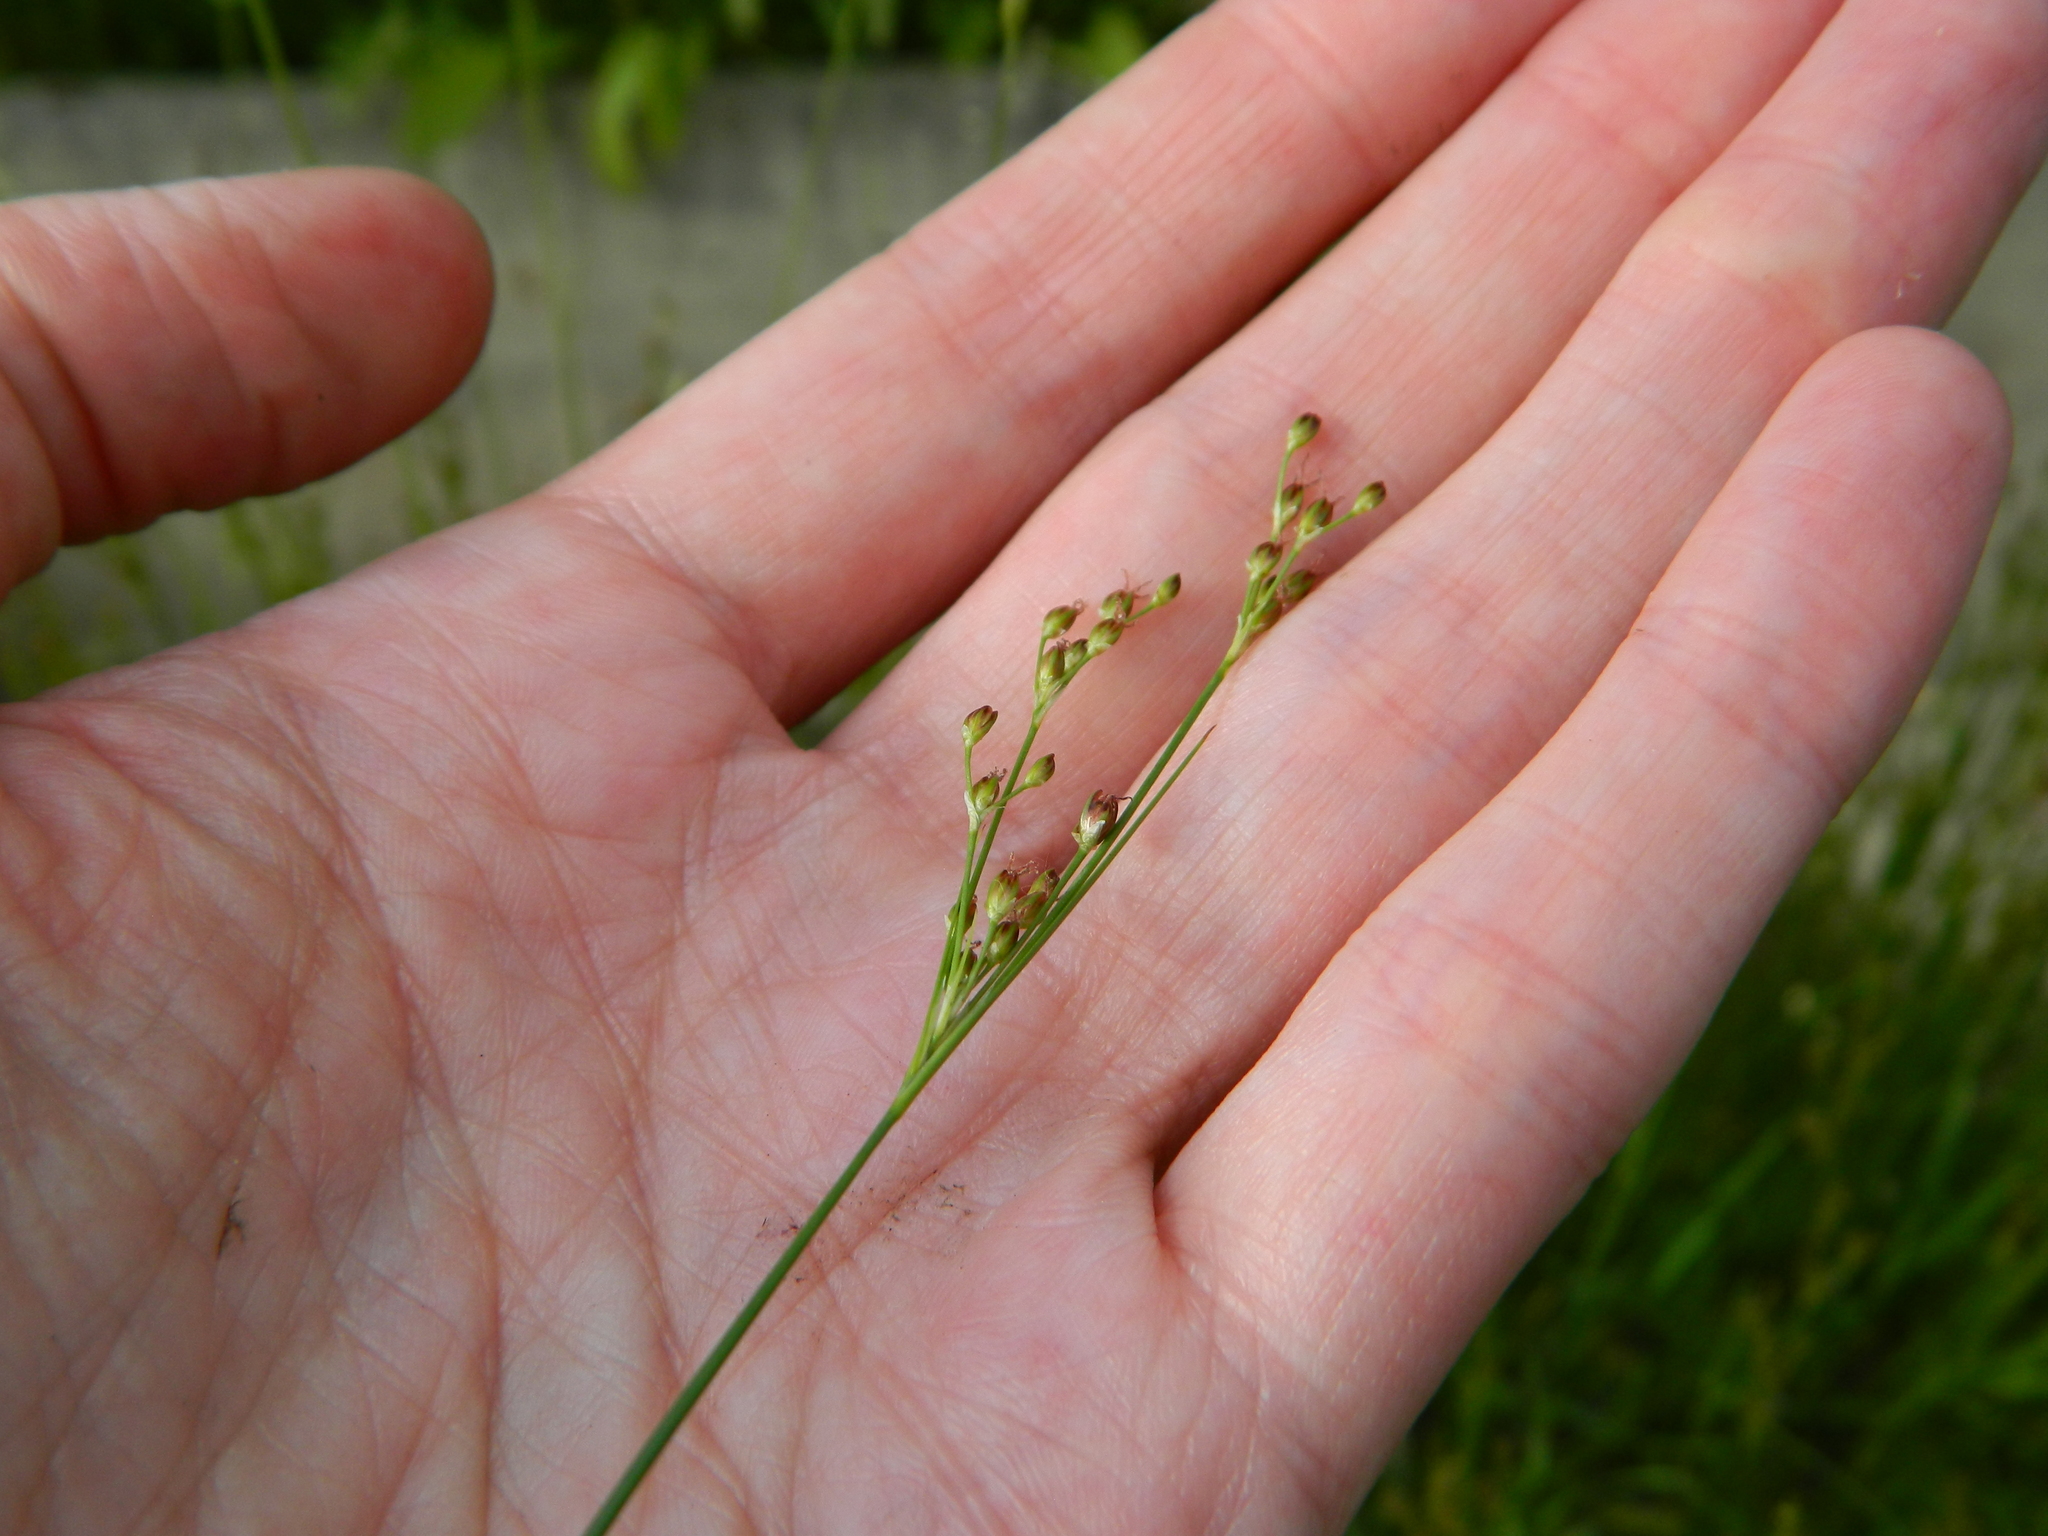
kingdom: Plantae
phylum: Tracheophyta
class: Liliopsida
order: Poales
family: Juncaceae
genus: Juncus
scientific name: Juncus compressus
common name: Round-fruited rush
